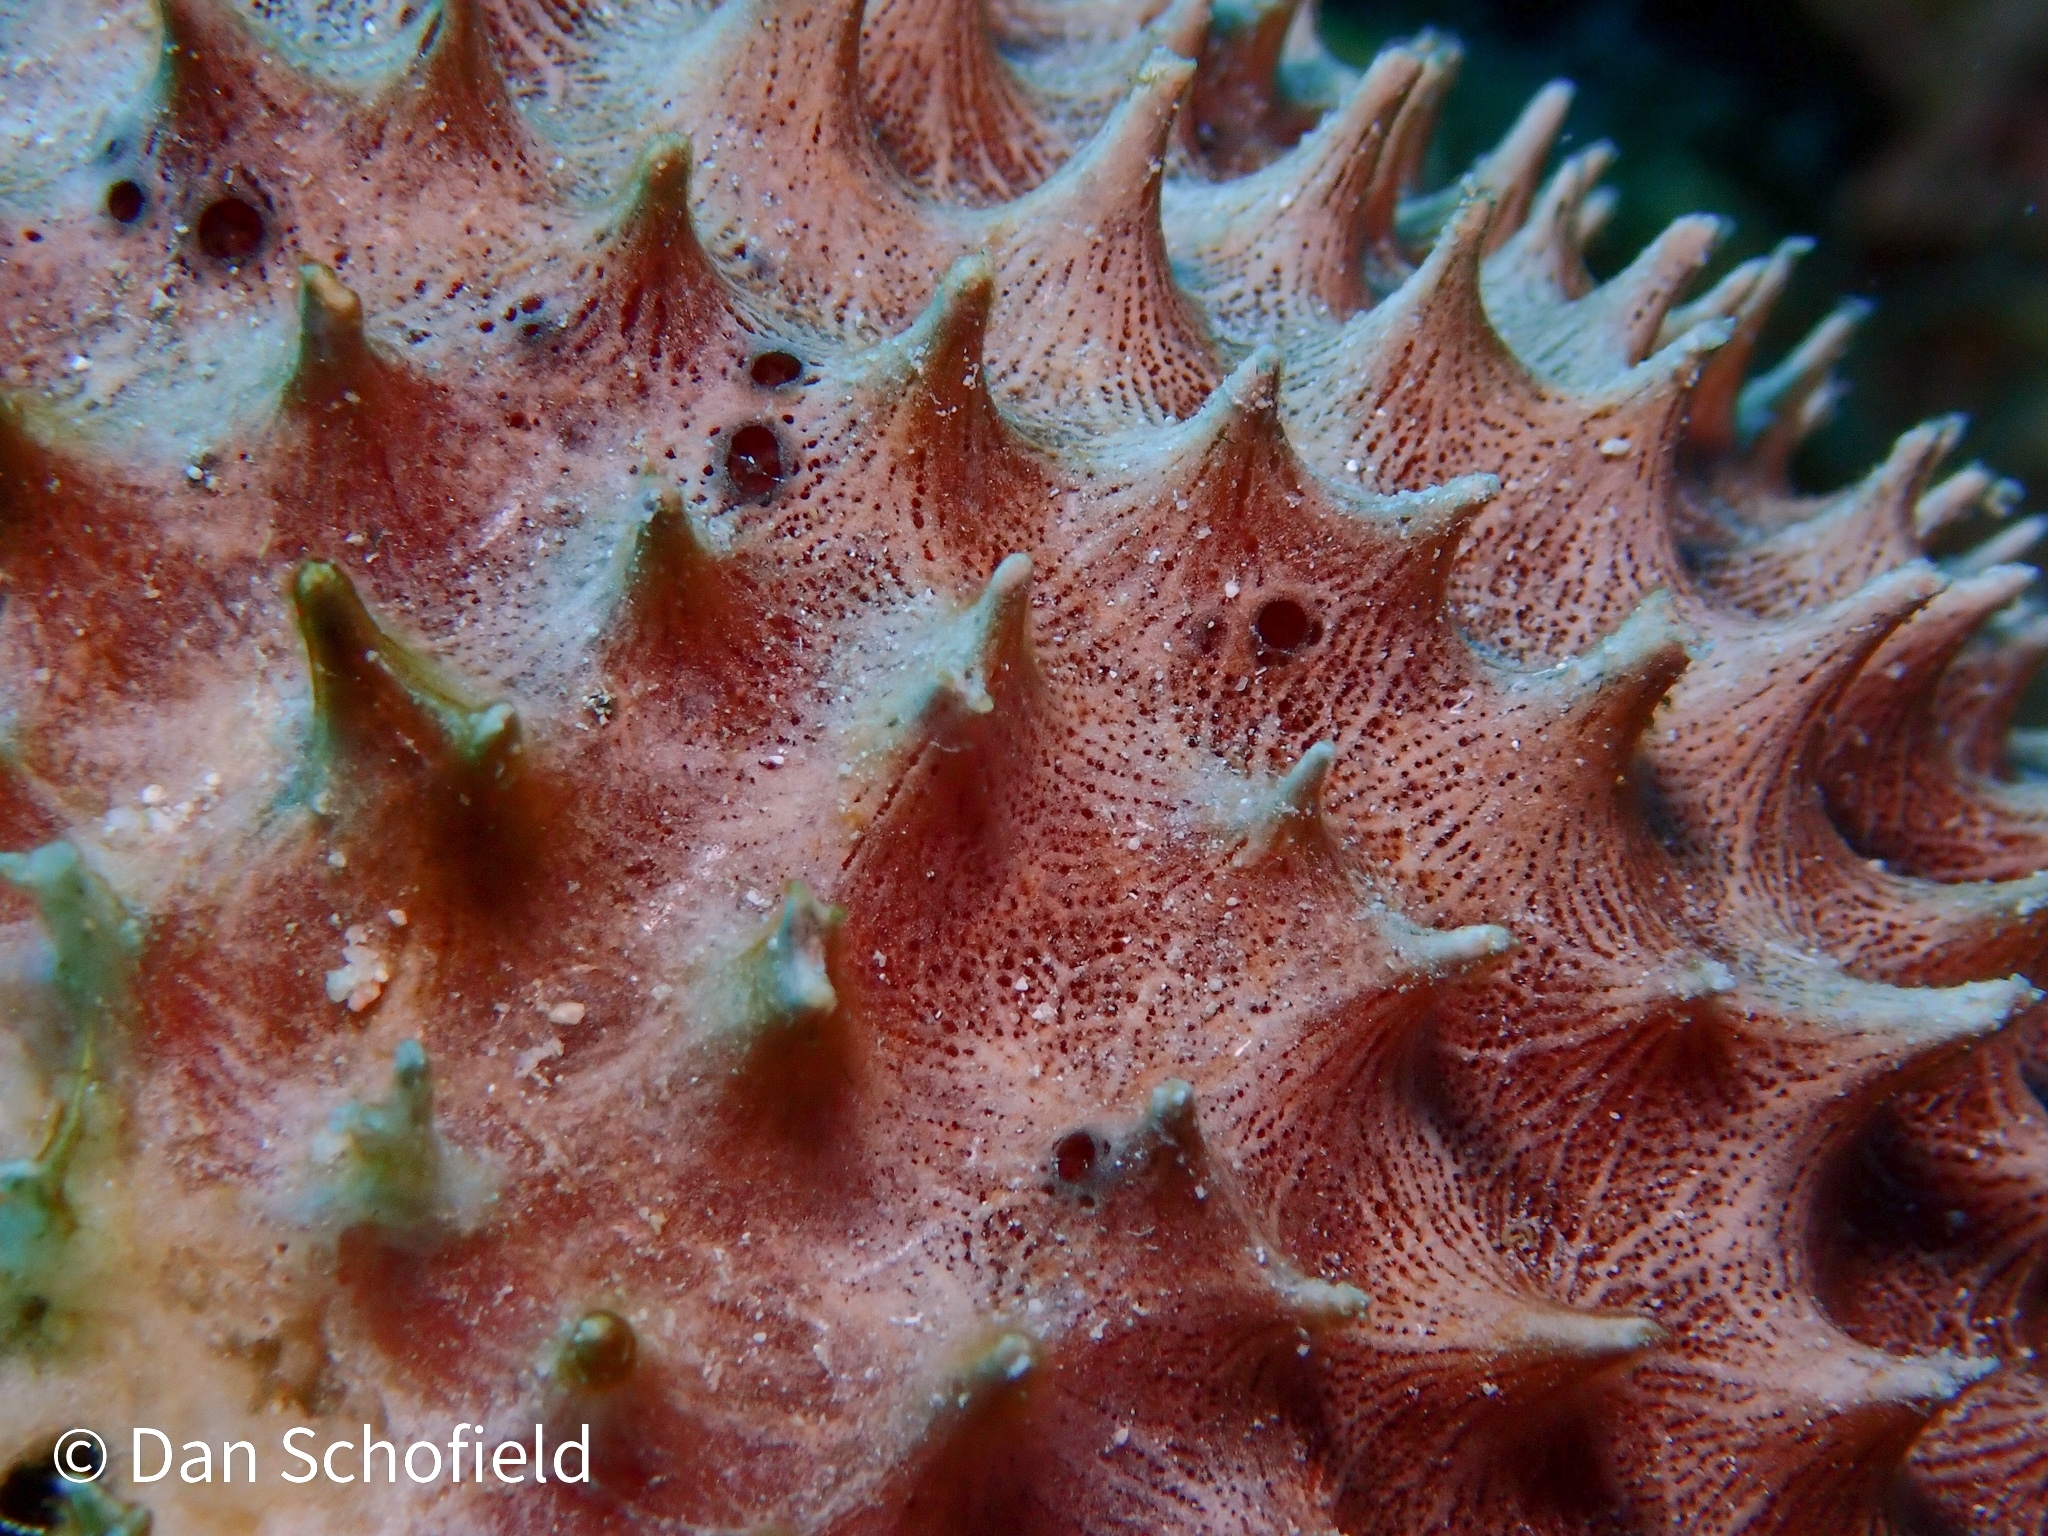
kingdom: Animalia
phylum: Porifera
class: Demospongiae
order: Dictyoceratida
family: Irciniidae
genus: Ircinia
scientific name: Ircinia felix
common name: Stinker sponge
